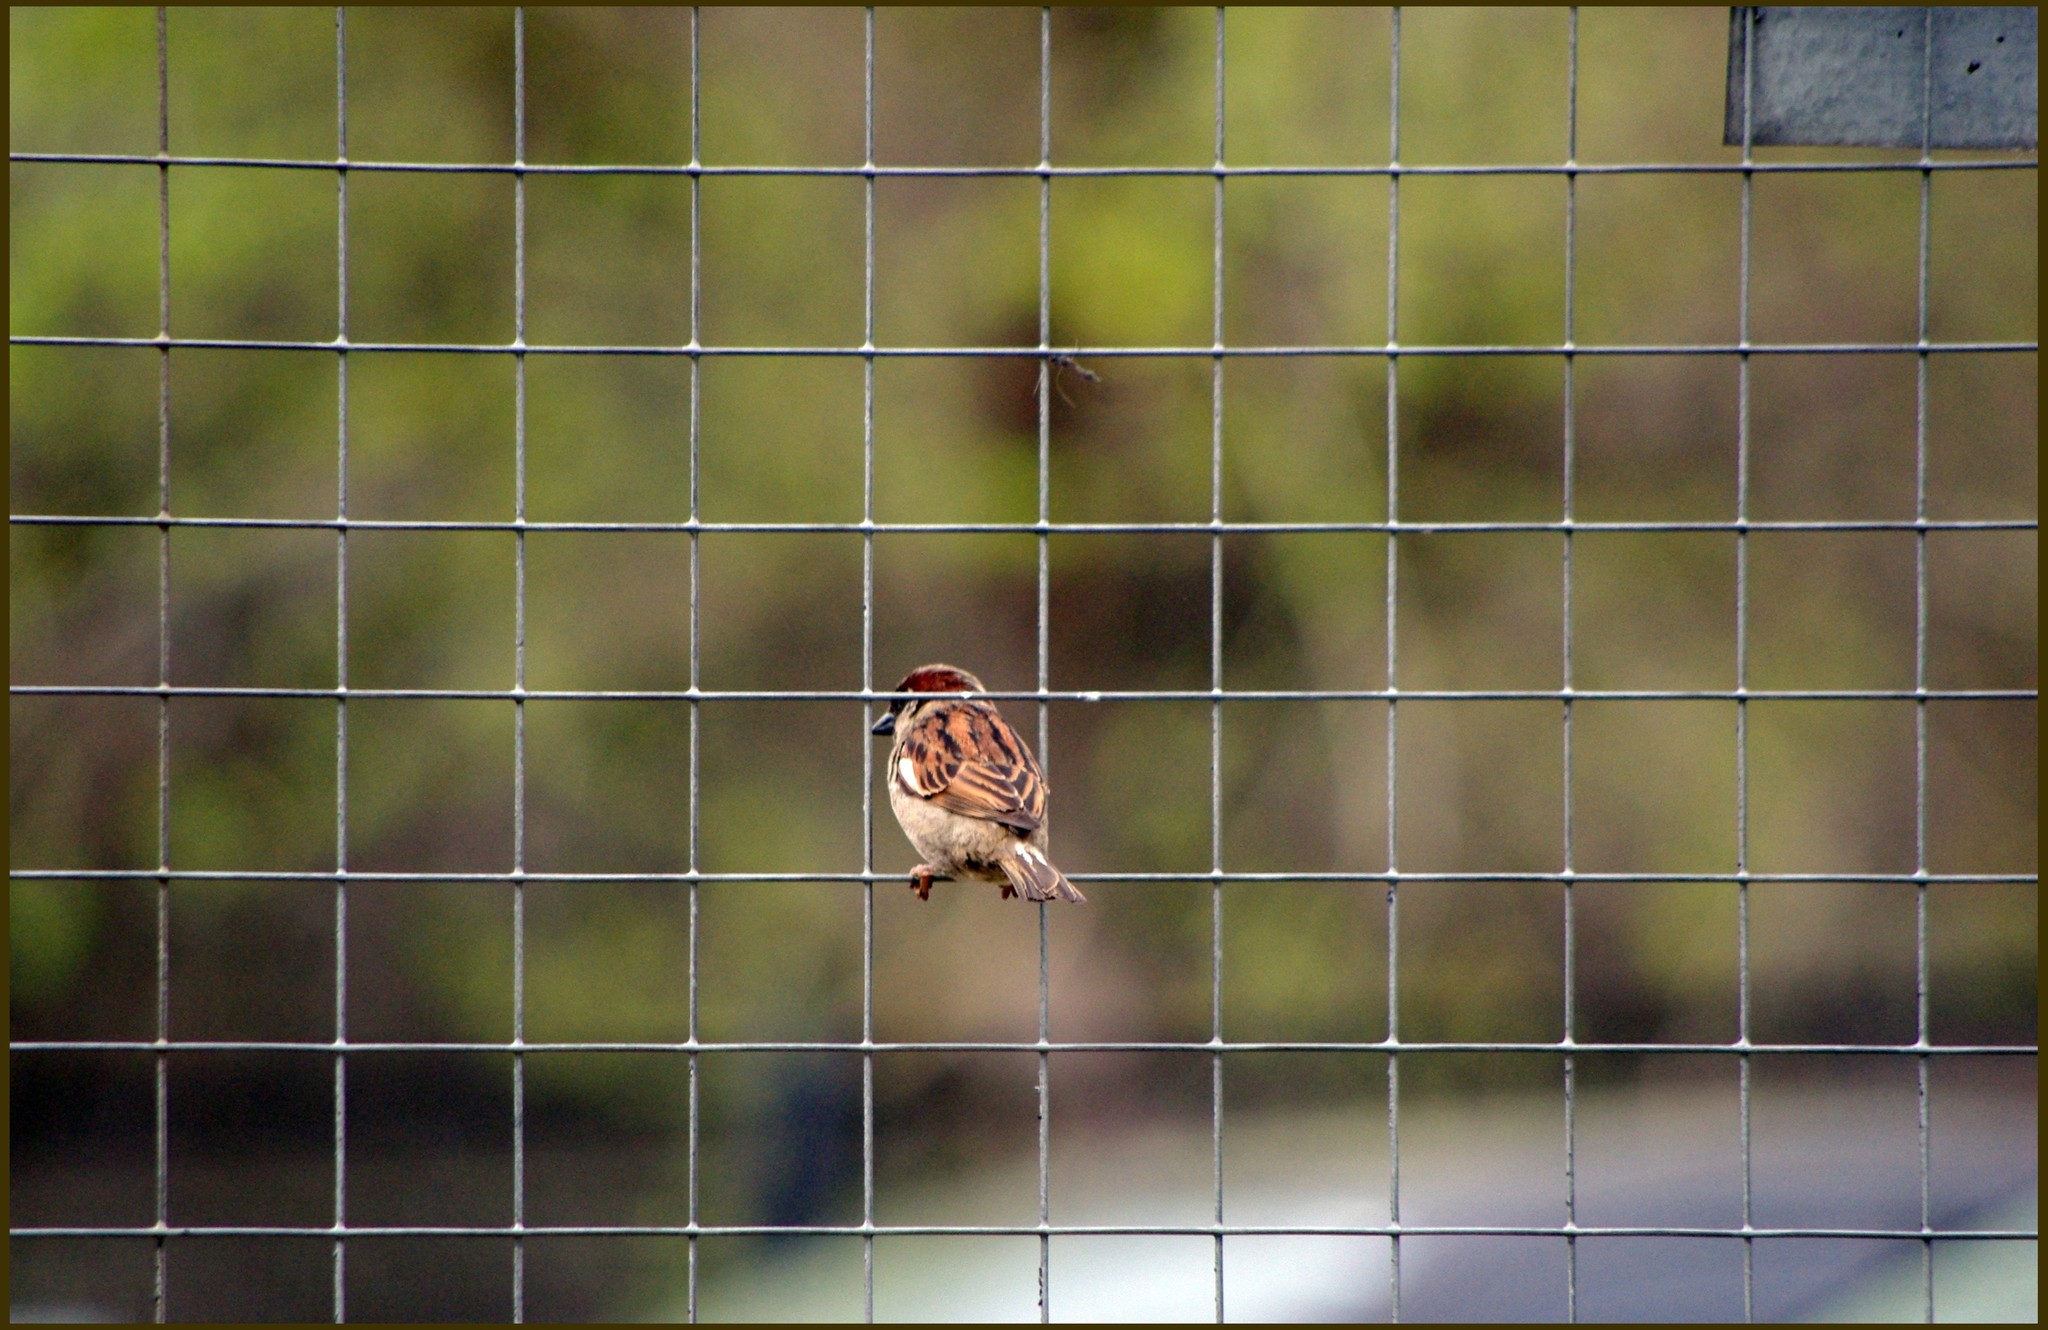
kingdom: Animalia
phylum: Chordata
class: Aves
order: Passeriformes
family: Passeridae
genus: Passer
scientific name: Passer domesticus
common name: House sparrow
